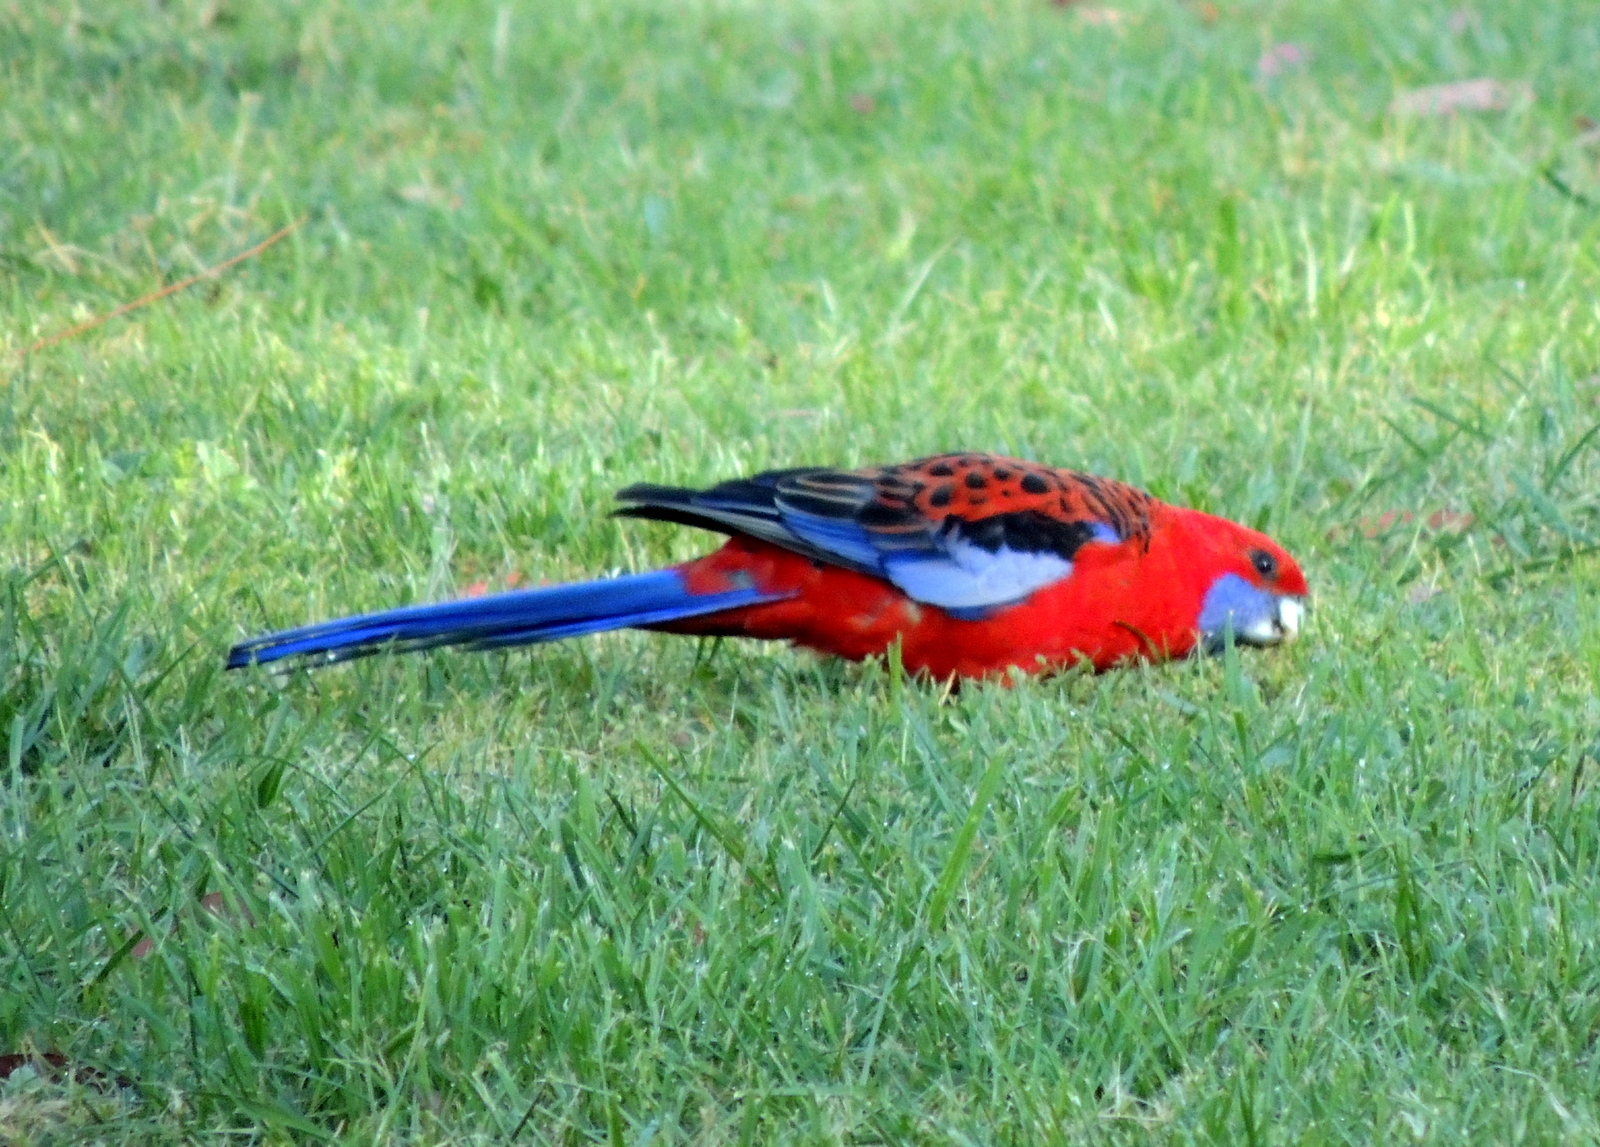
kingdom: Animalia
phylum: Chordata
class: Aves
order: Psittaciformes
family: Psittacidae
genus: Platycercus
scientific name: Platycercus elegans
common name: Crimson rosella
